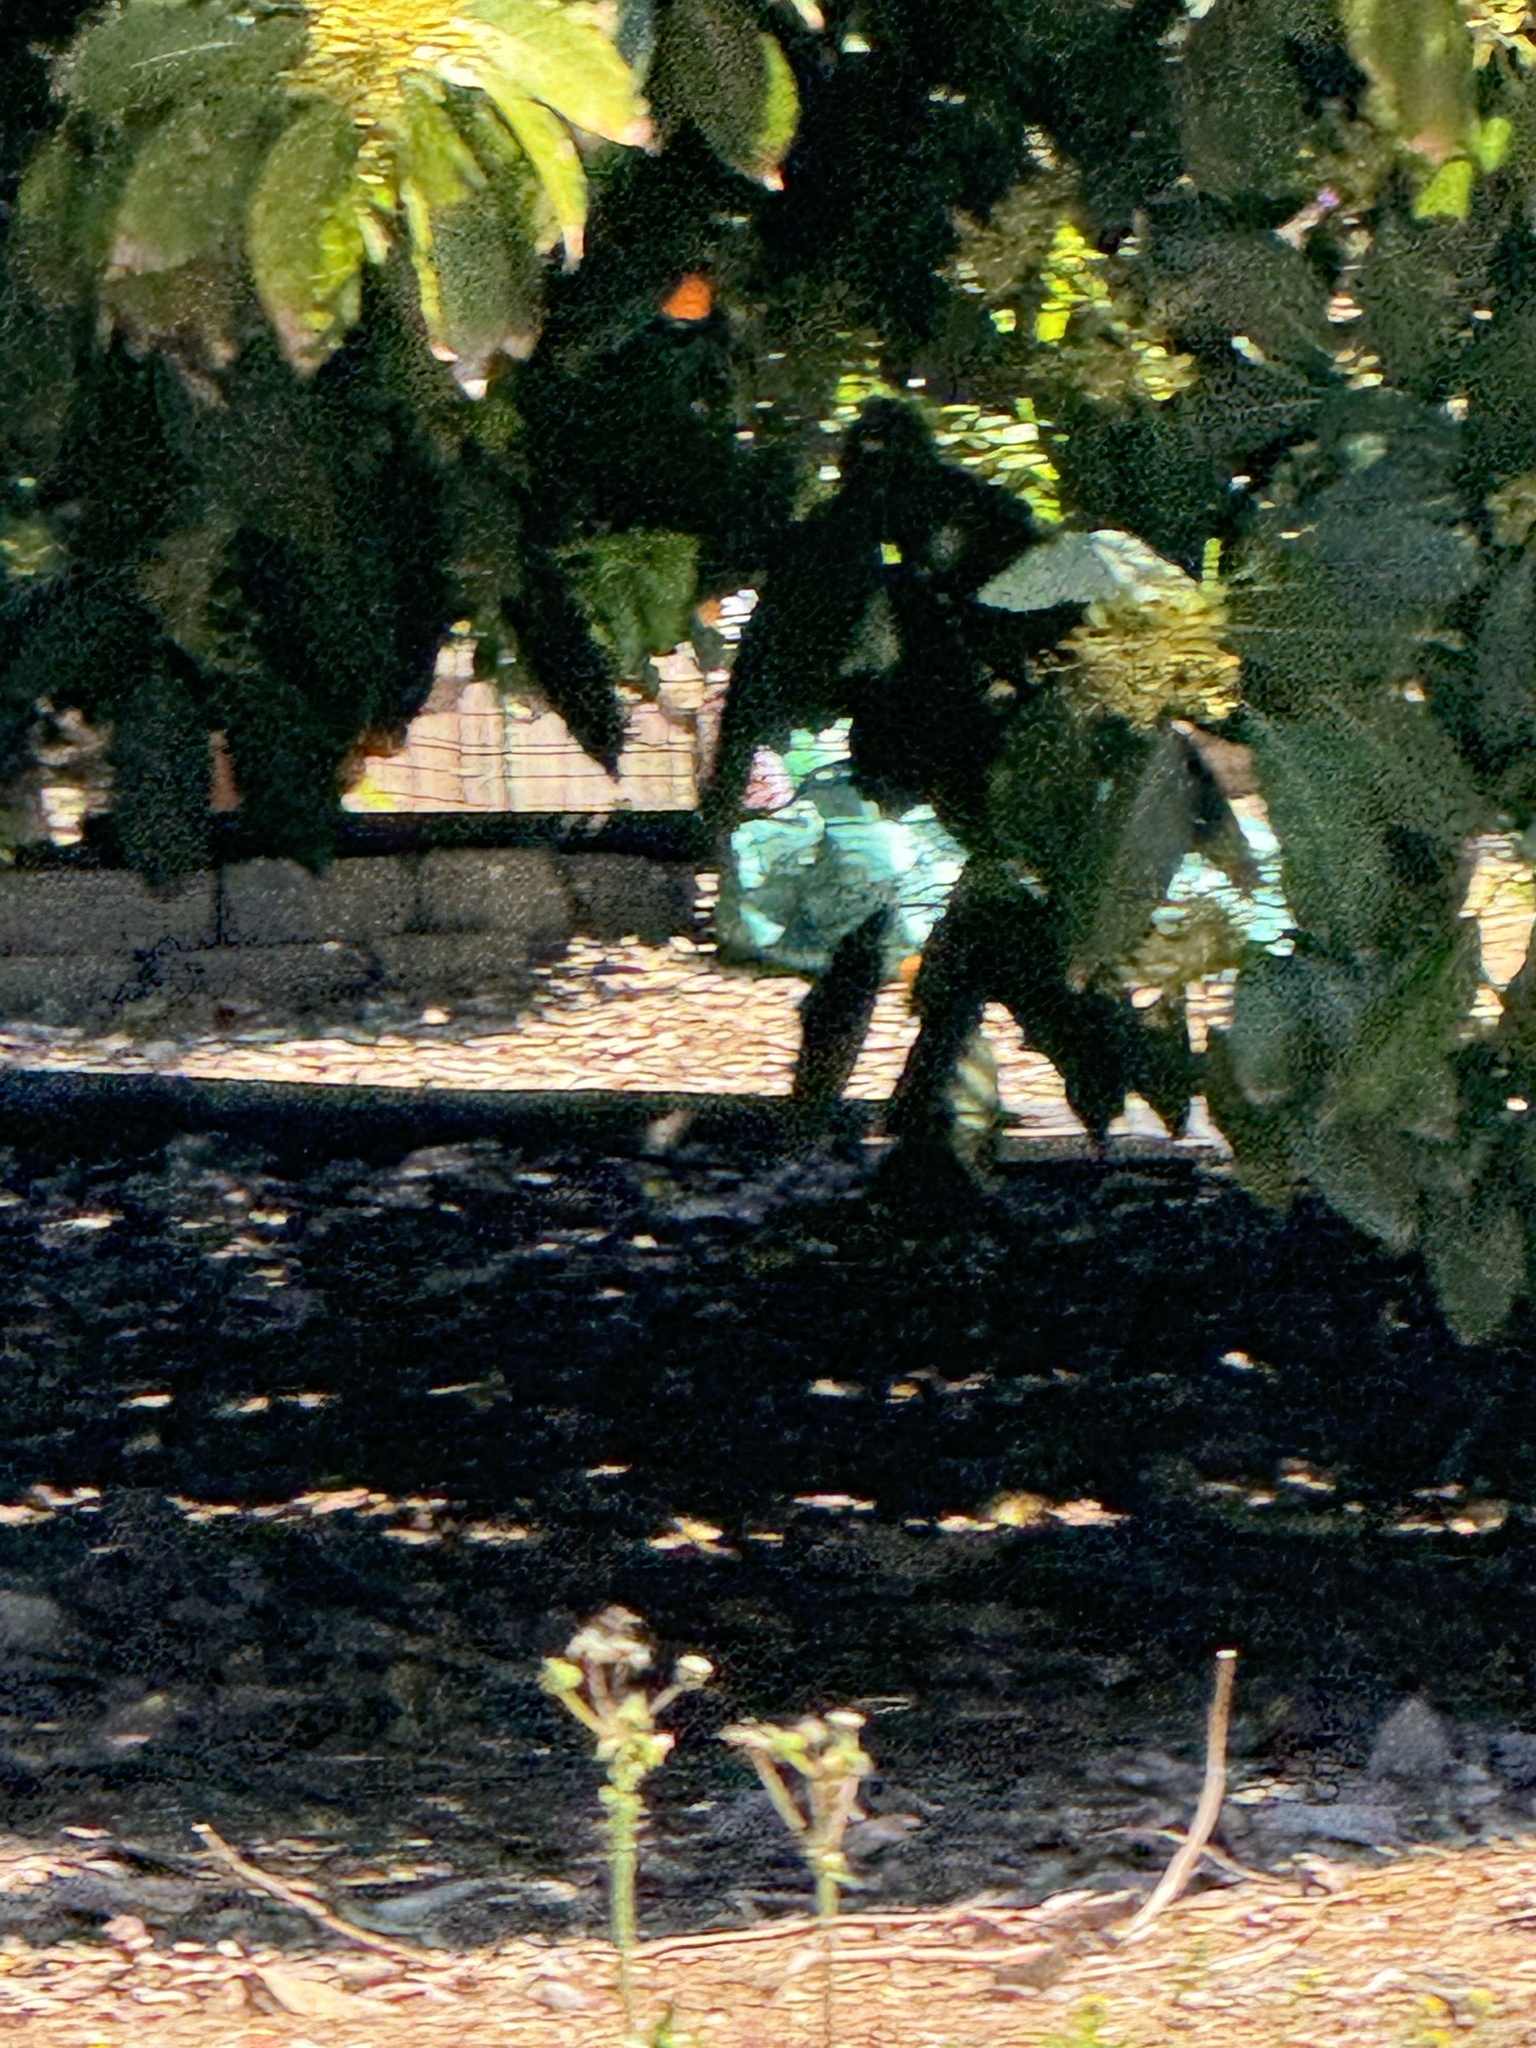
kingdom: Animalia
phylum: Arthropoda
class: Insecta
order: Lepidoptera
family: Nymphalidae
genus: Danaus
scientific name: Danaus plexippus
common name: Monarch
